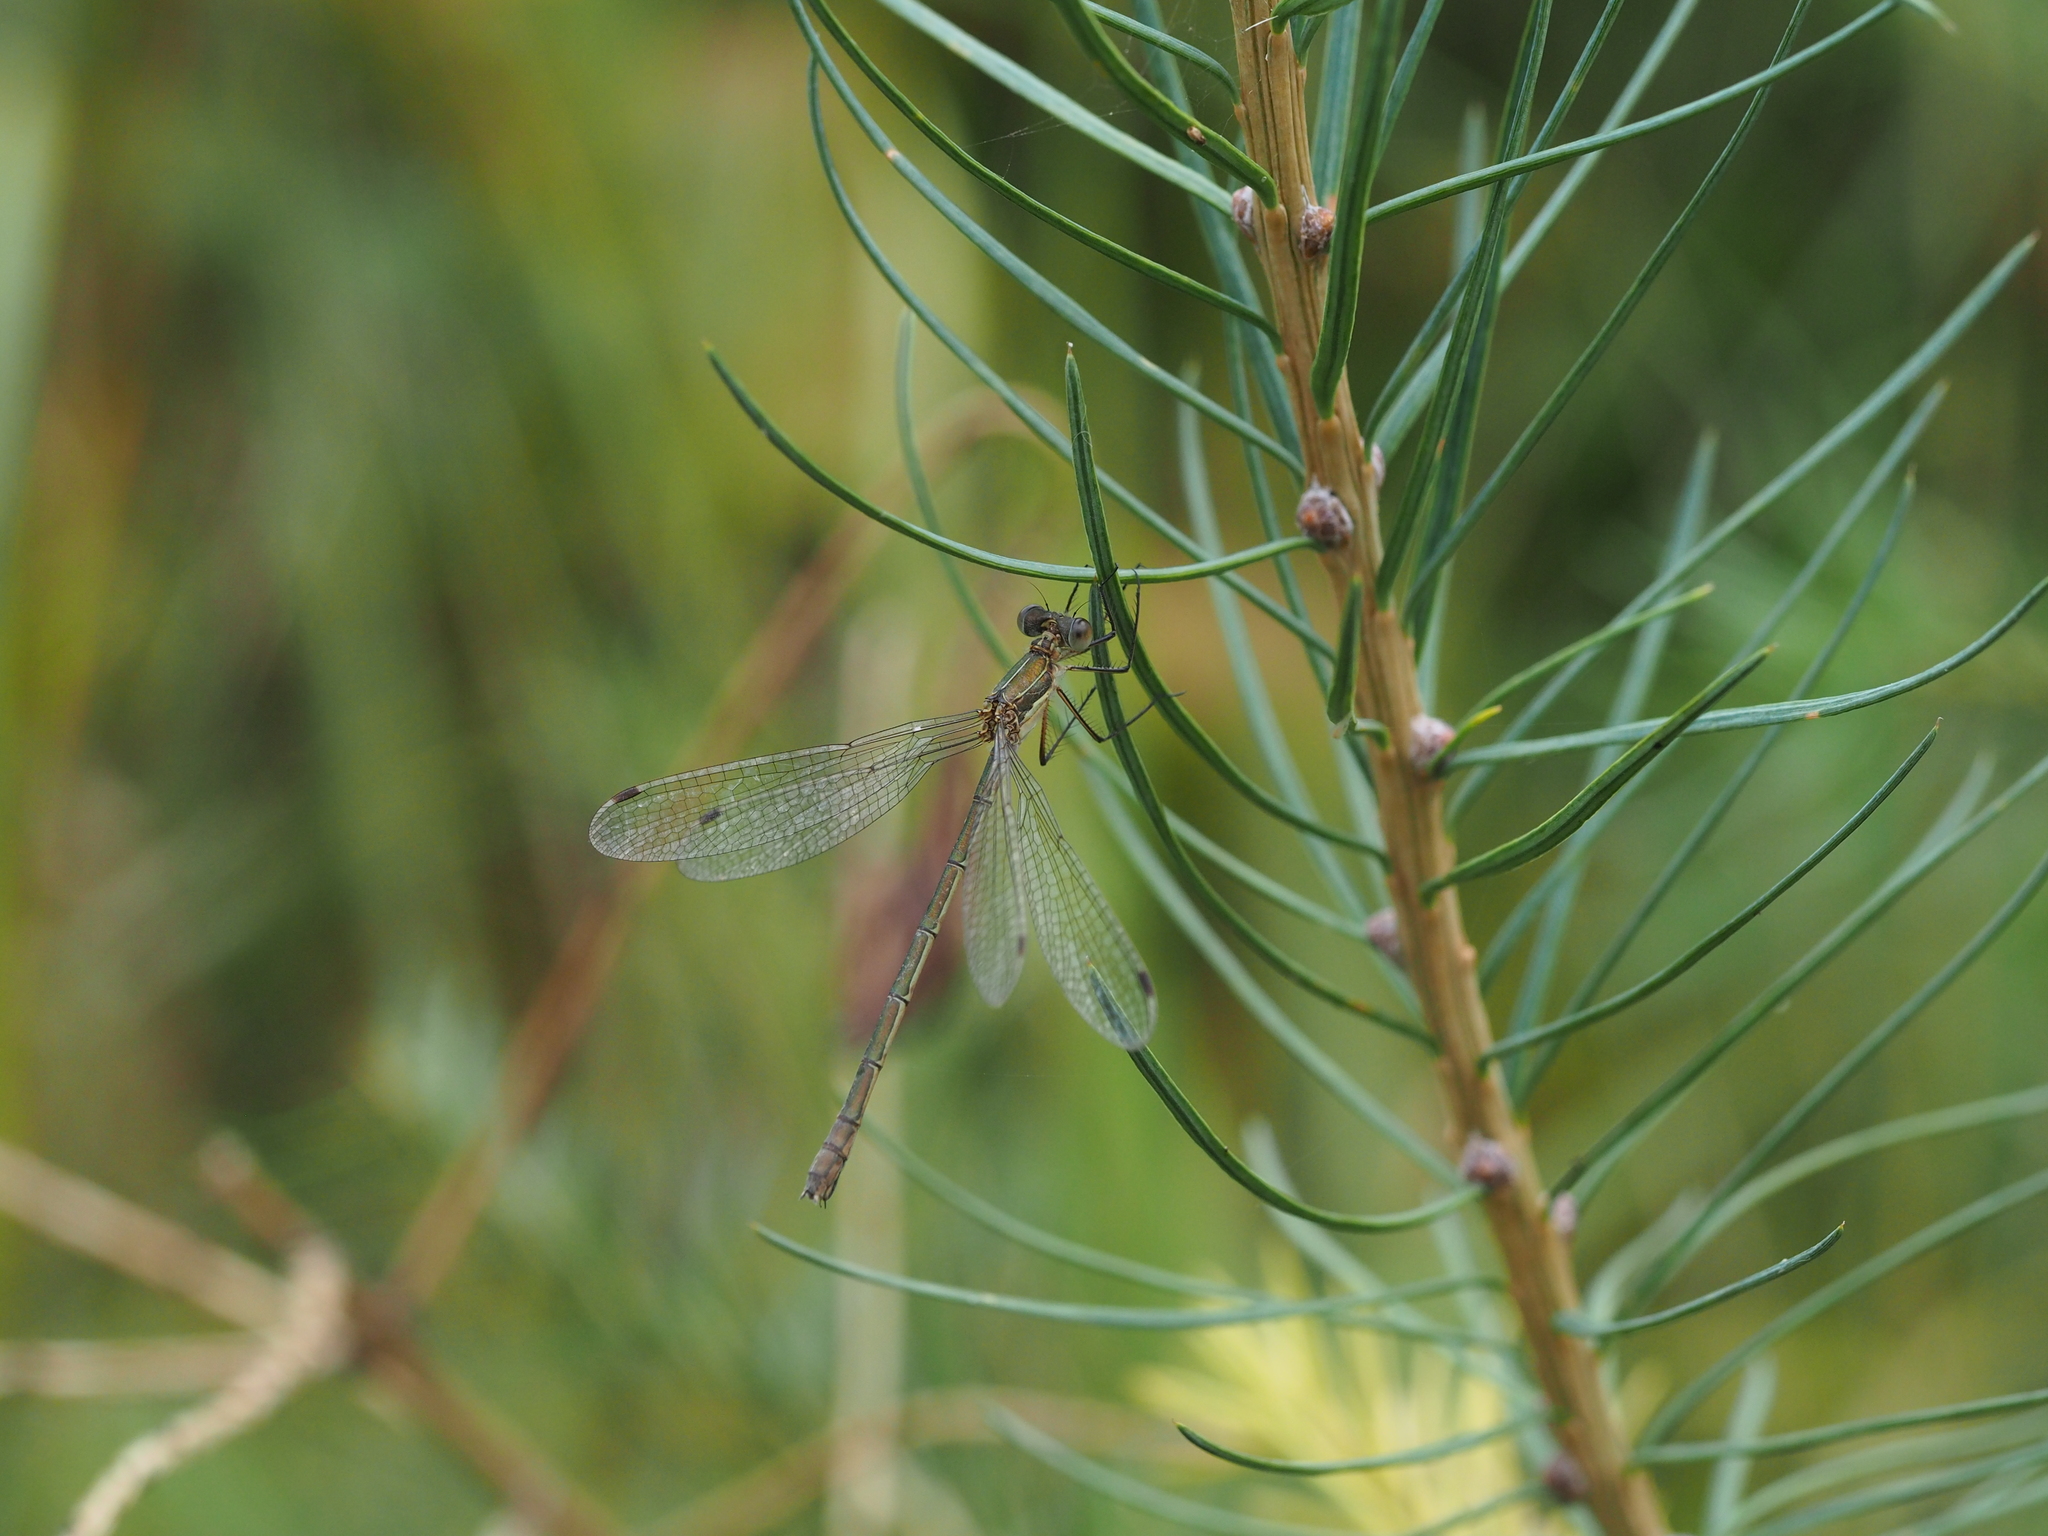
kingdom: Animalia
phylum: Arthropoda
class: Insecta
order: Odonata
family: Lestidae
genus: Lestes
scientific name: Lestes sponsa
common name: Common spreadwing
